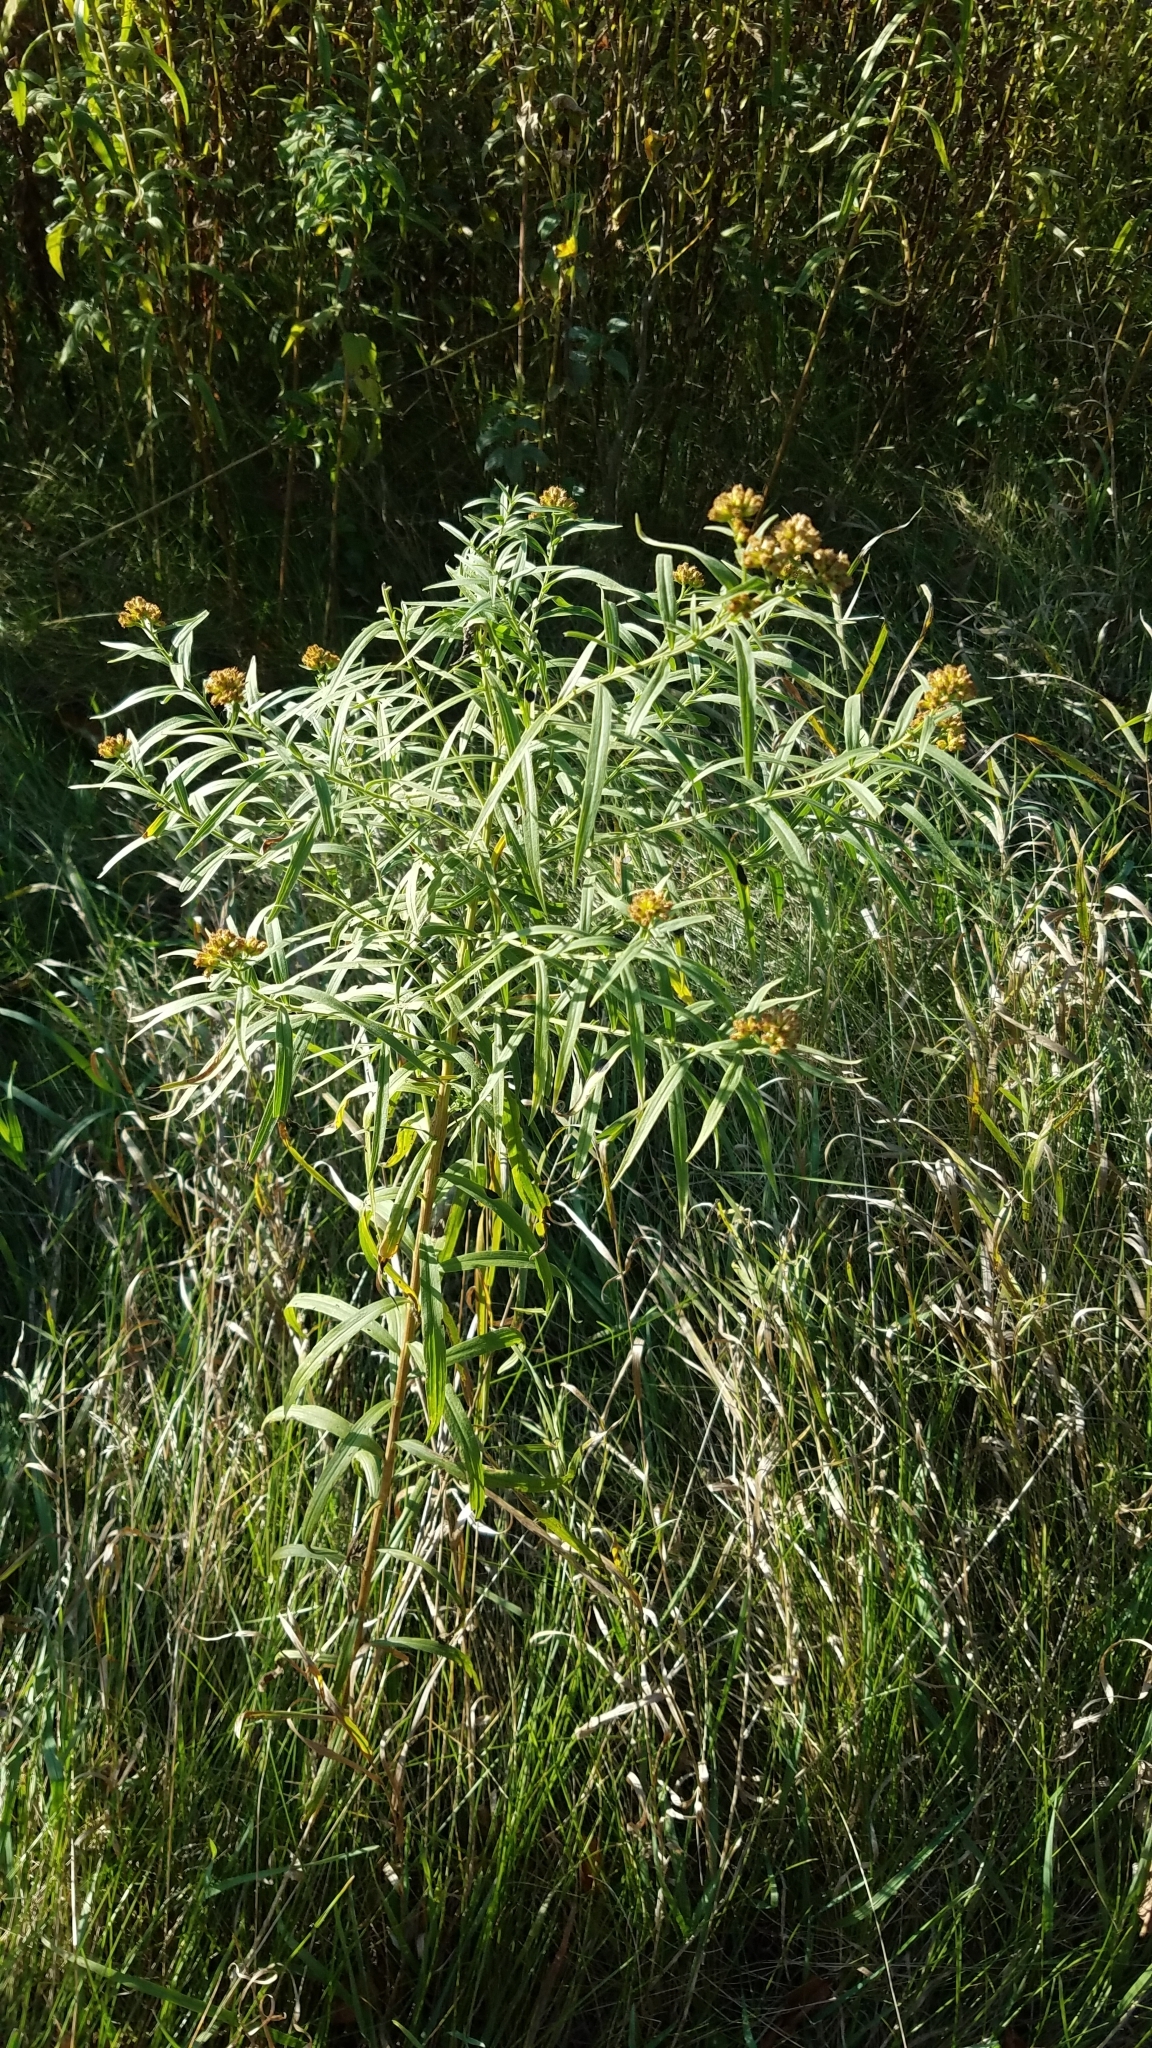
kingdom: Plantae
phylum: Tracheophyta
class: Magnoliopsida
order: Asterales
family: Asteraceae
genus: Euthamia
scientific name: Euthamia graminifolia
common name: Common goldentop
